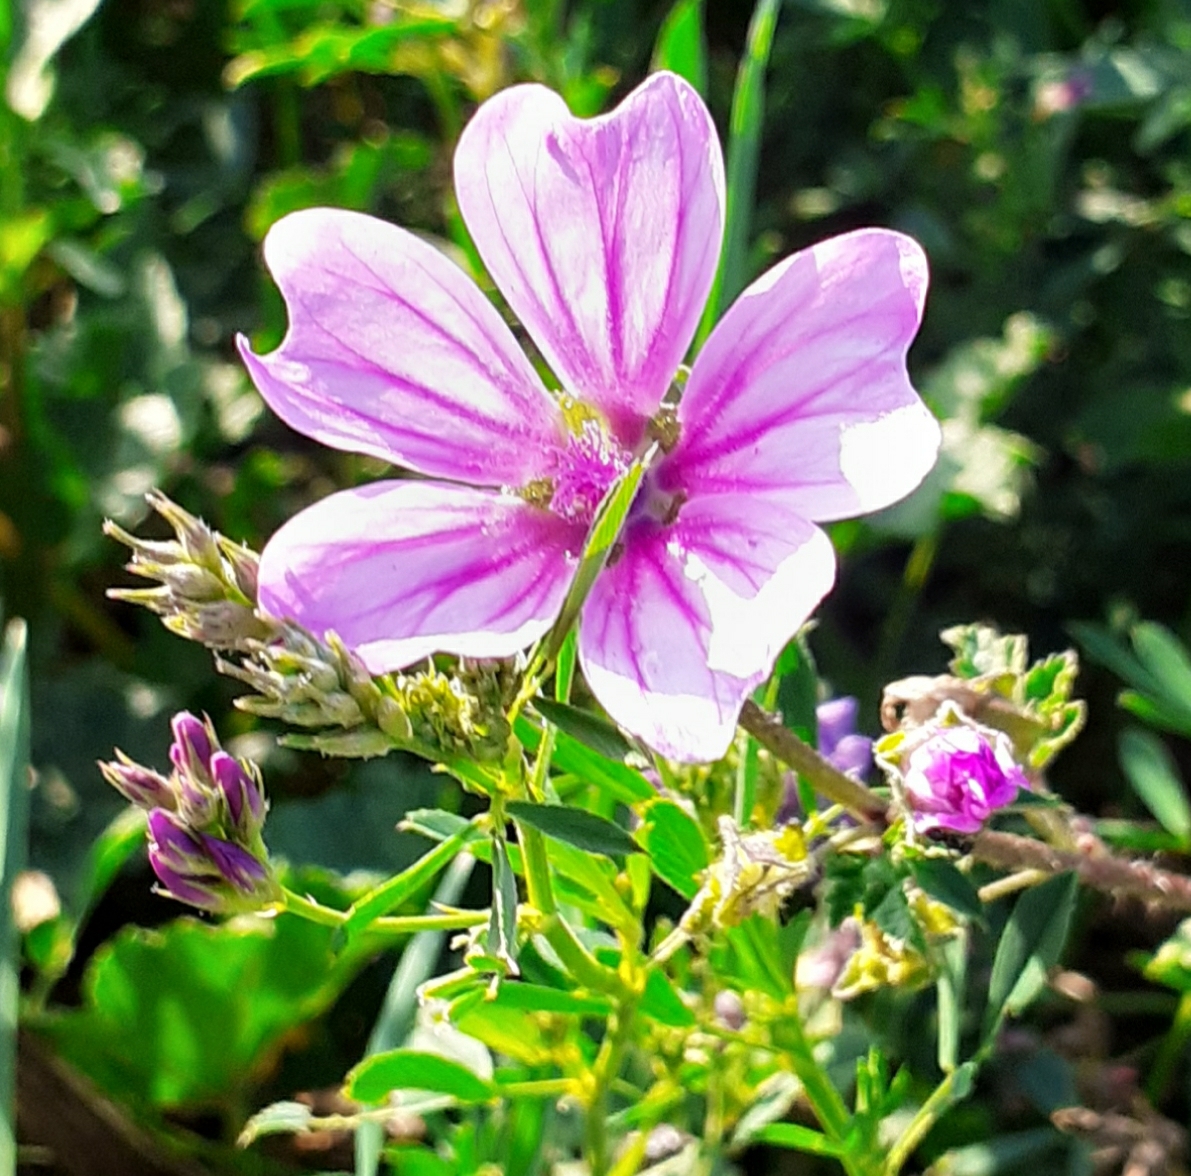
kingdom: Plantae
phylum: Tracheophyta
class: Magnoliopsida
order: Malvales
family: Malvaceae
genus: Malva
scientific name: Malva sylvestris
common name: Common mallow
